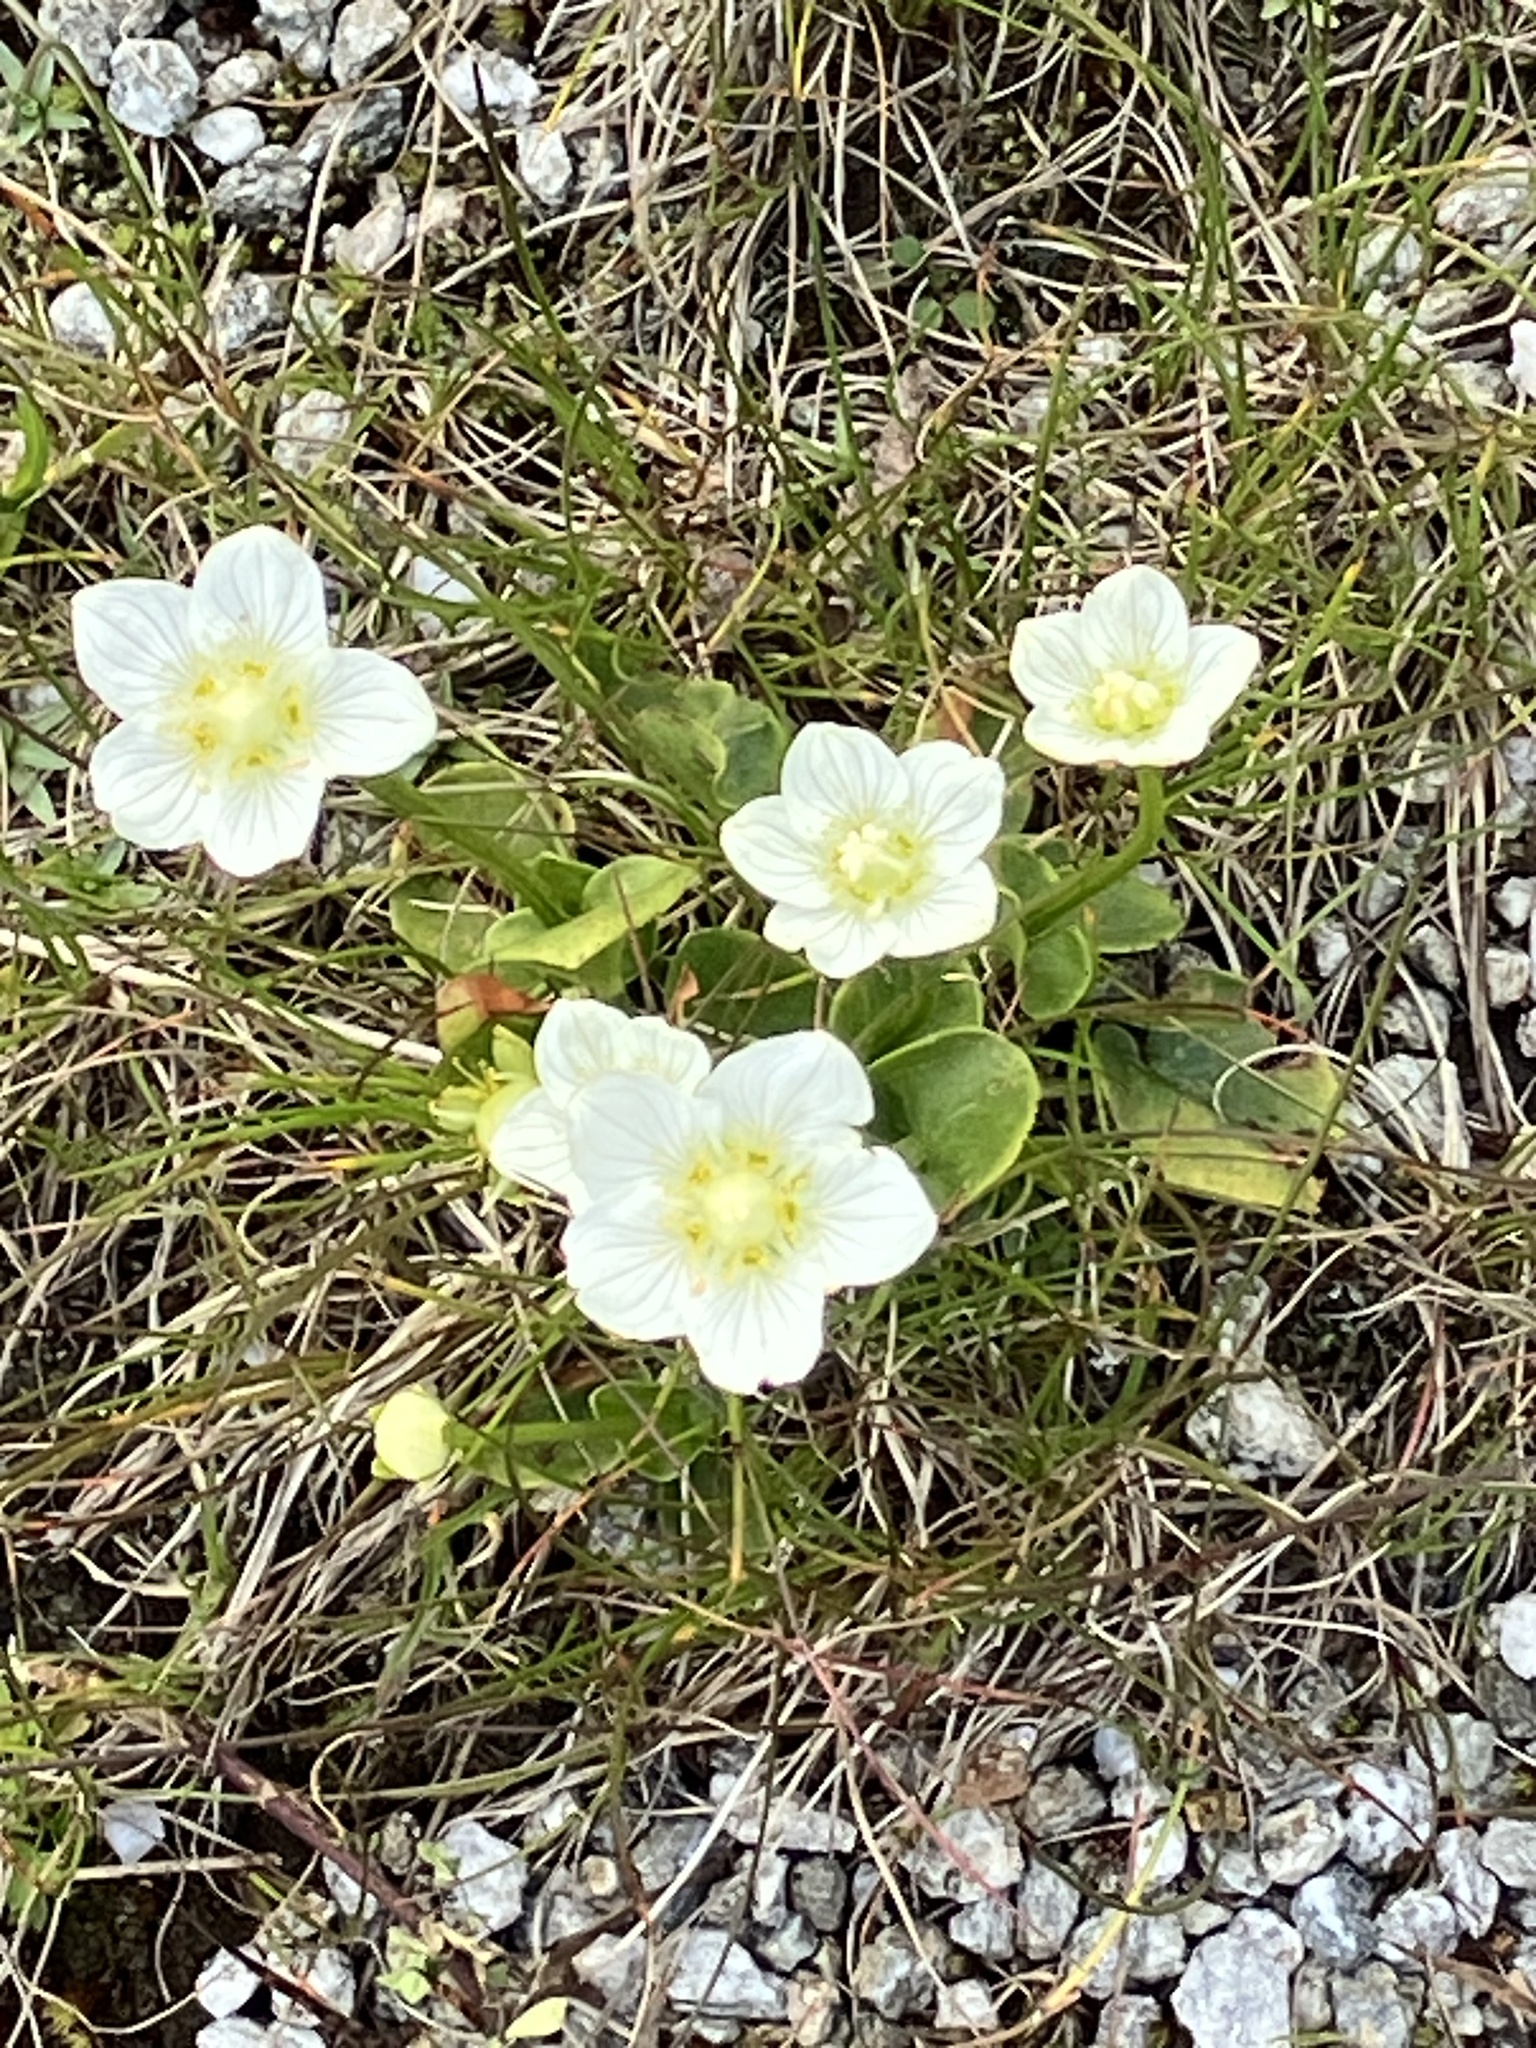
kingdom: Plantae
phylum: Tracheophyta
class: Magnoliopsida
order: Celastrales
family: Parnassiaceae
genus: Parnassia
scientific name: Parnassia palustris
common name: Grass-of-parnassus
